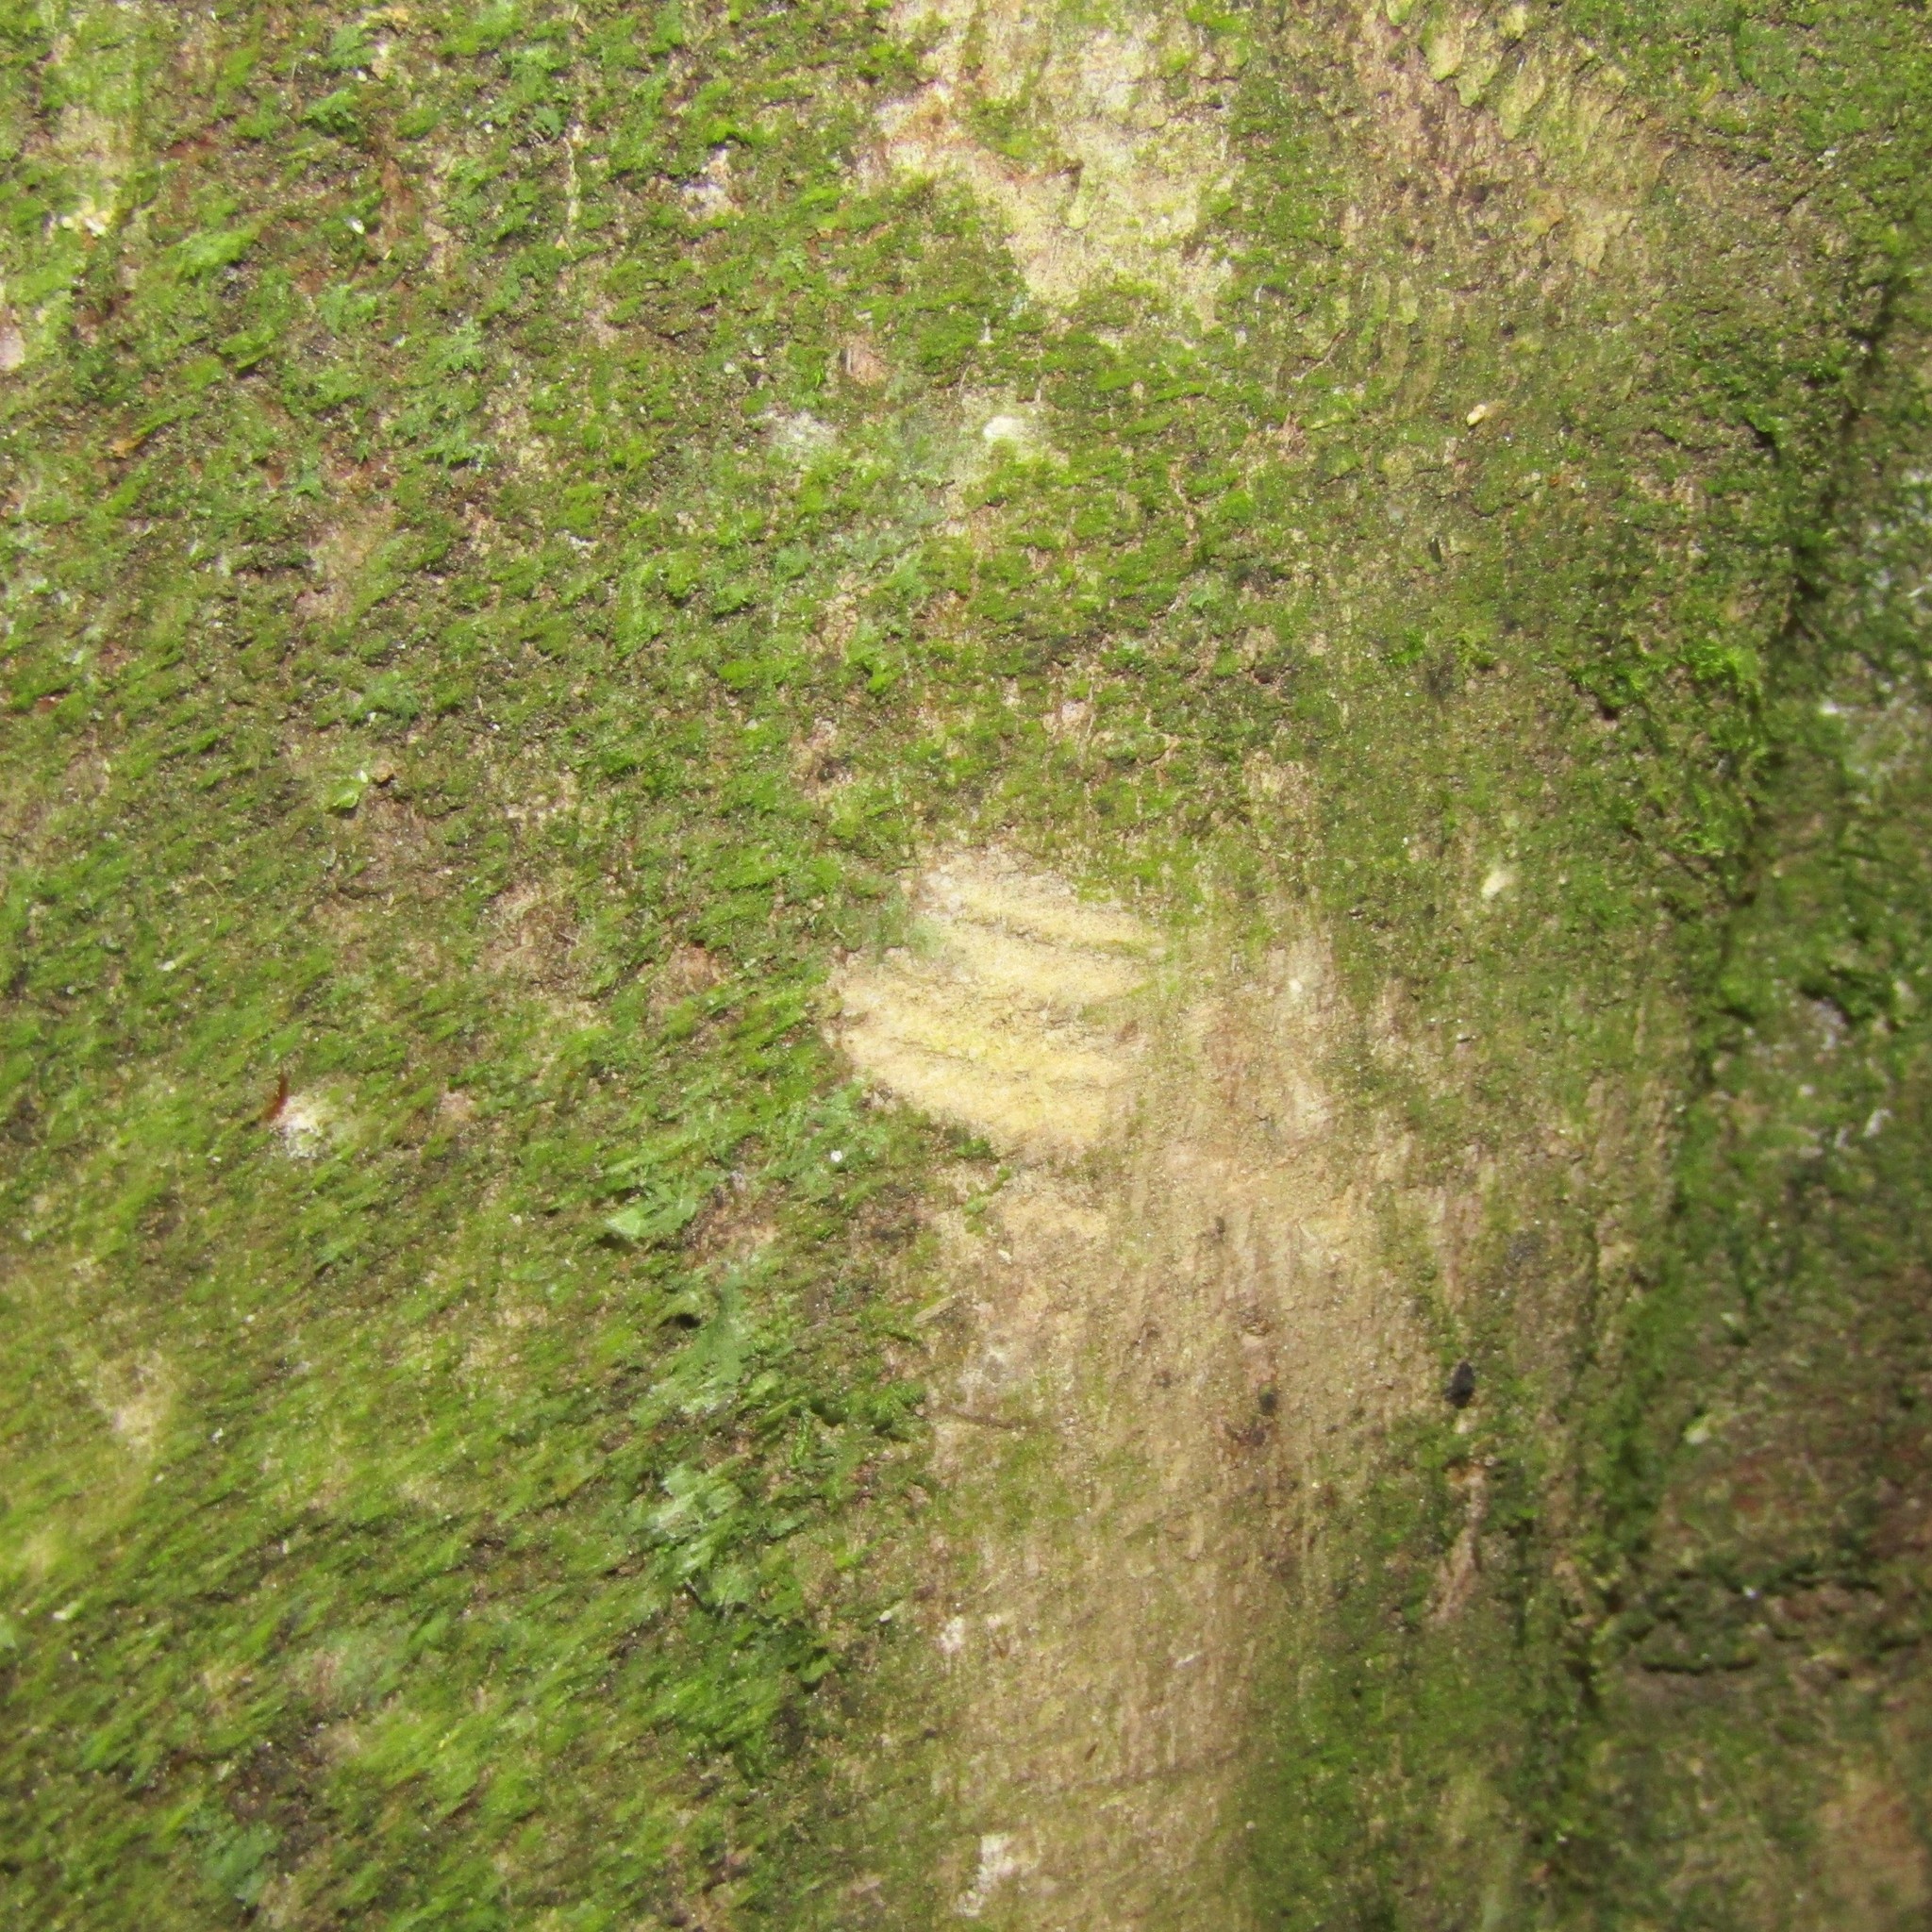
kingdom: Animalia
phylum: Chordata
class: Mammalia
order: Diprotodontia
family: Phalangeridae
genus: Trichosurus
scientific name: Trichosurus vulpecula
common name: Common brushtail
